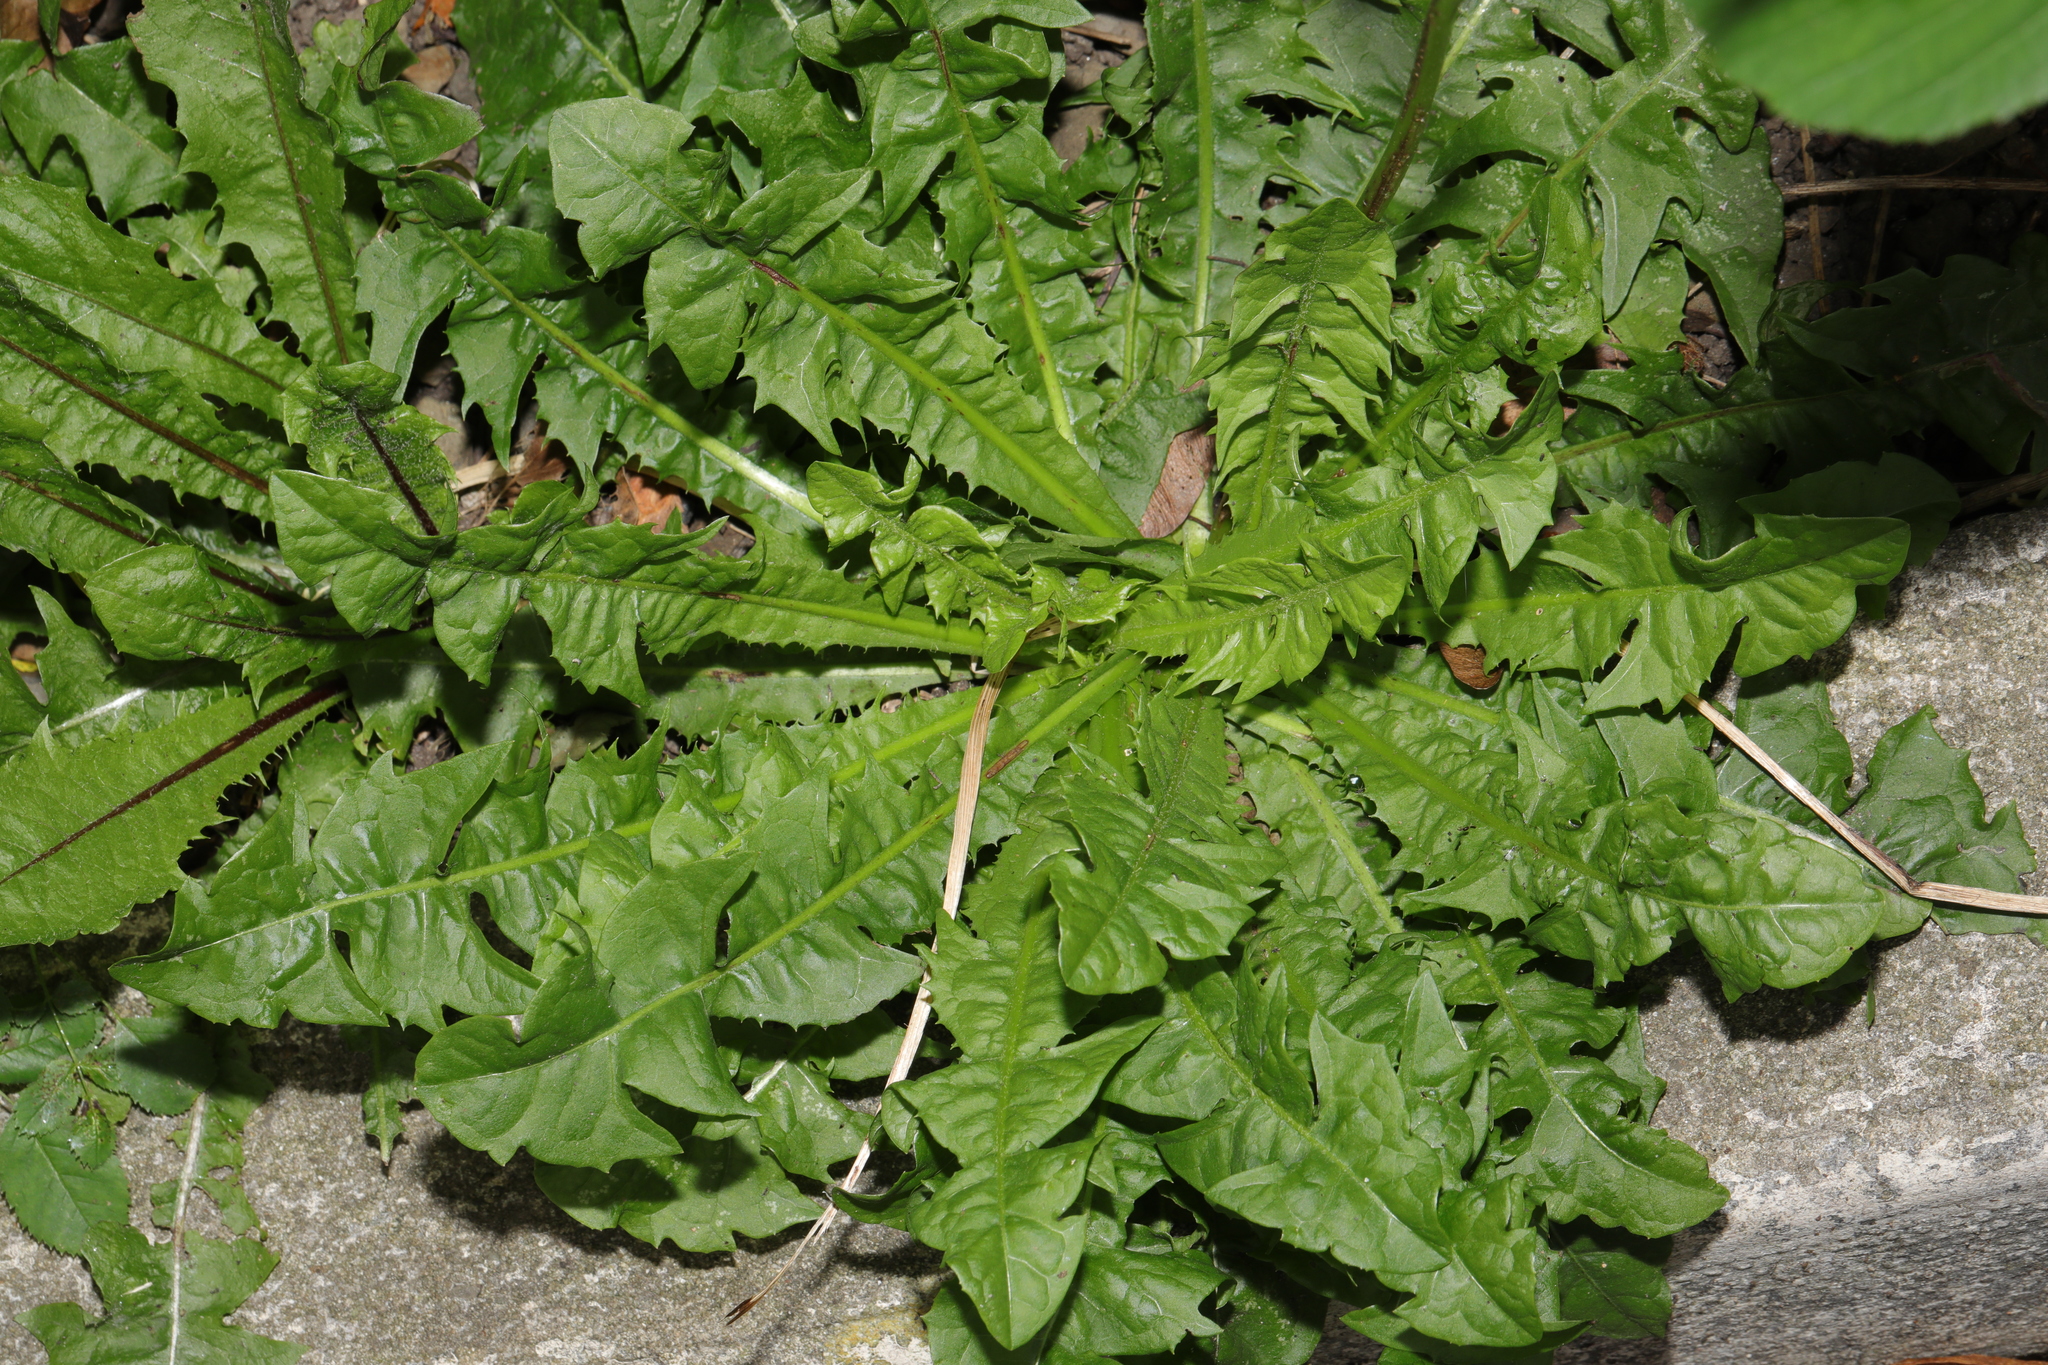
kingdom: Plantae
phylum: Tracheophyta
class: Magnoliopsida
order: Asterales
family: Asteraceae
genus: Taraxacum
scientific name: Taraxacum officinale
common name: Common dandelion
